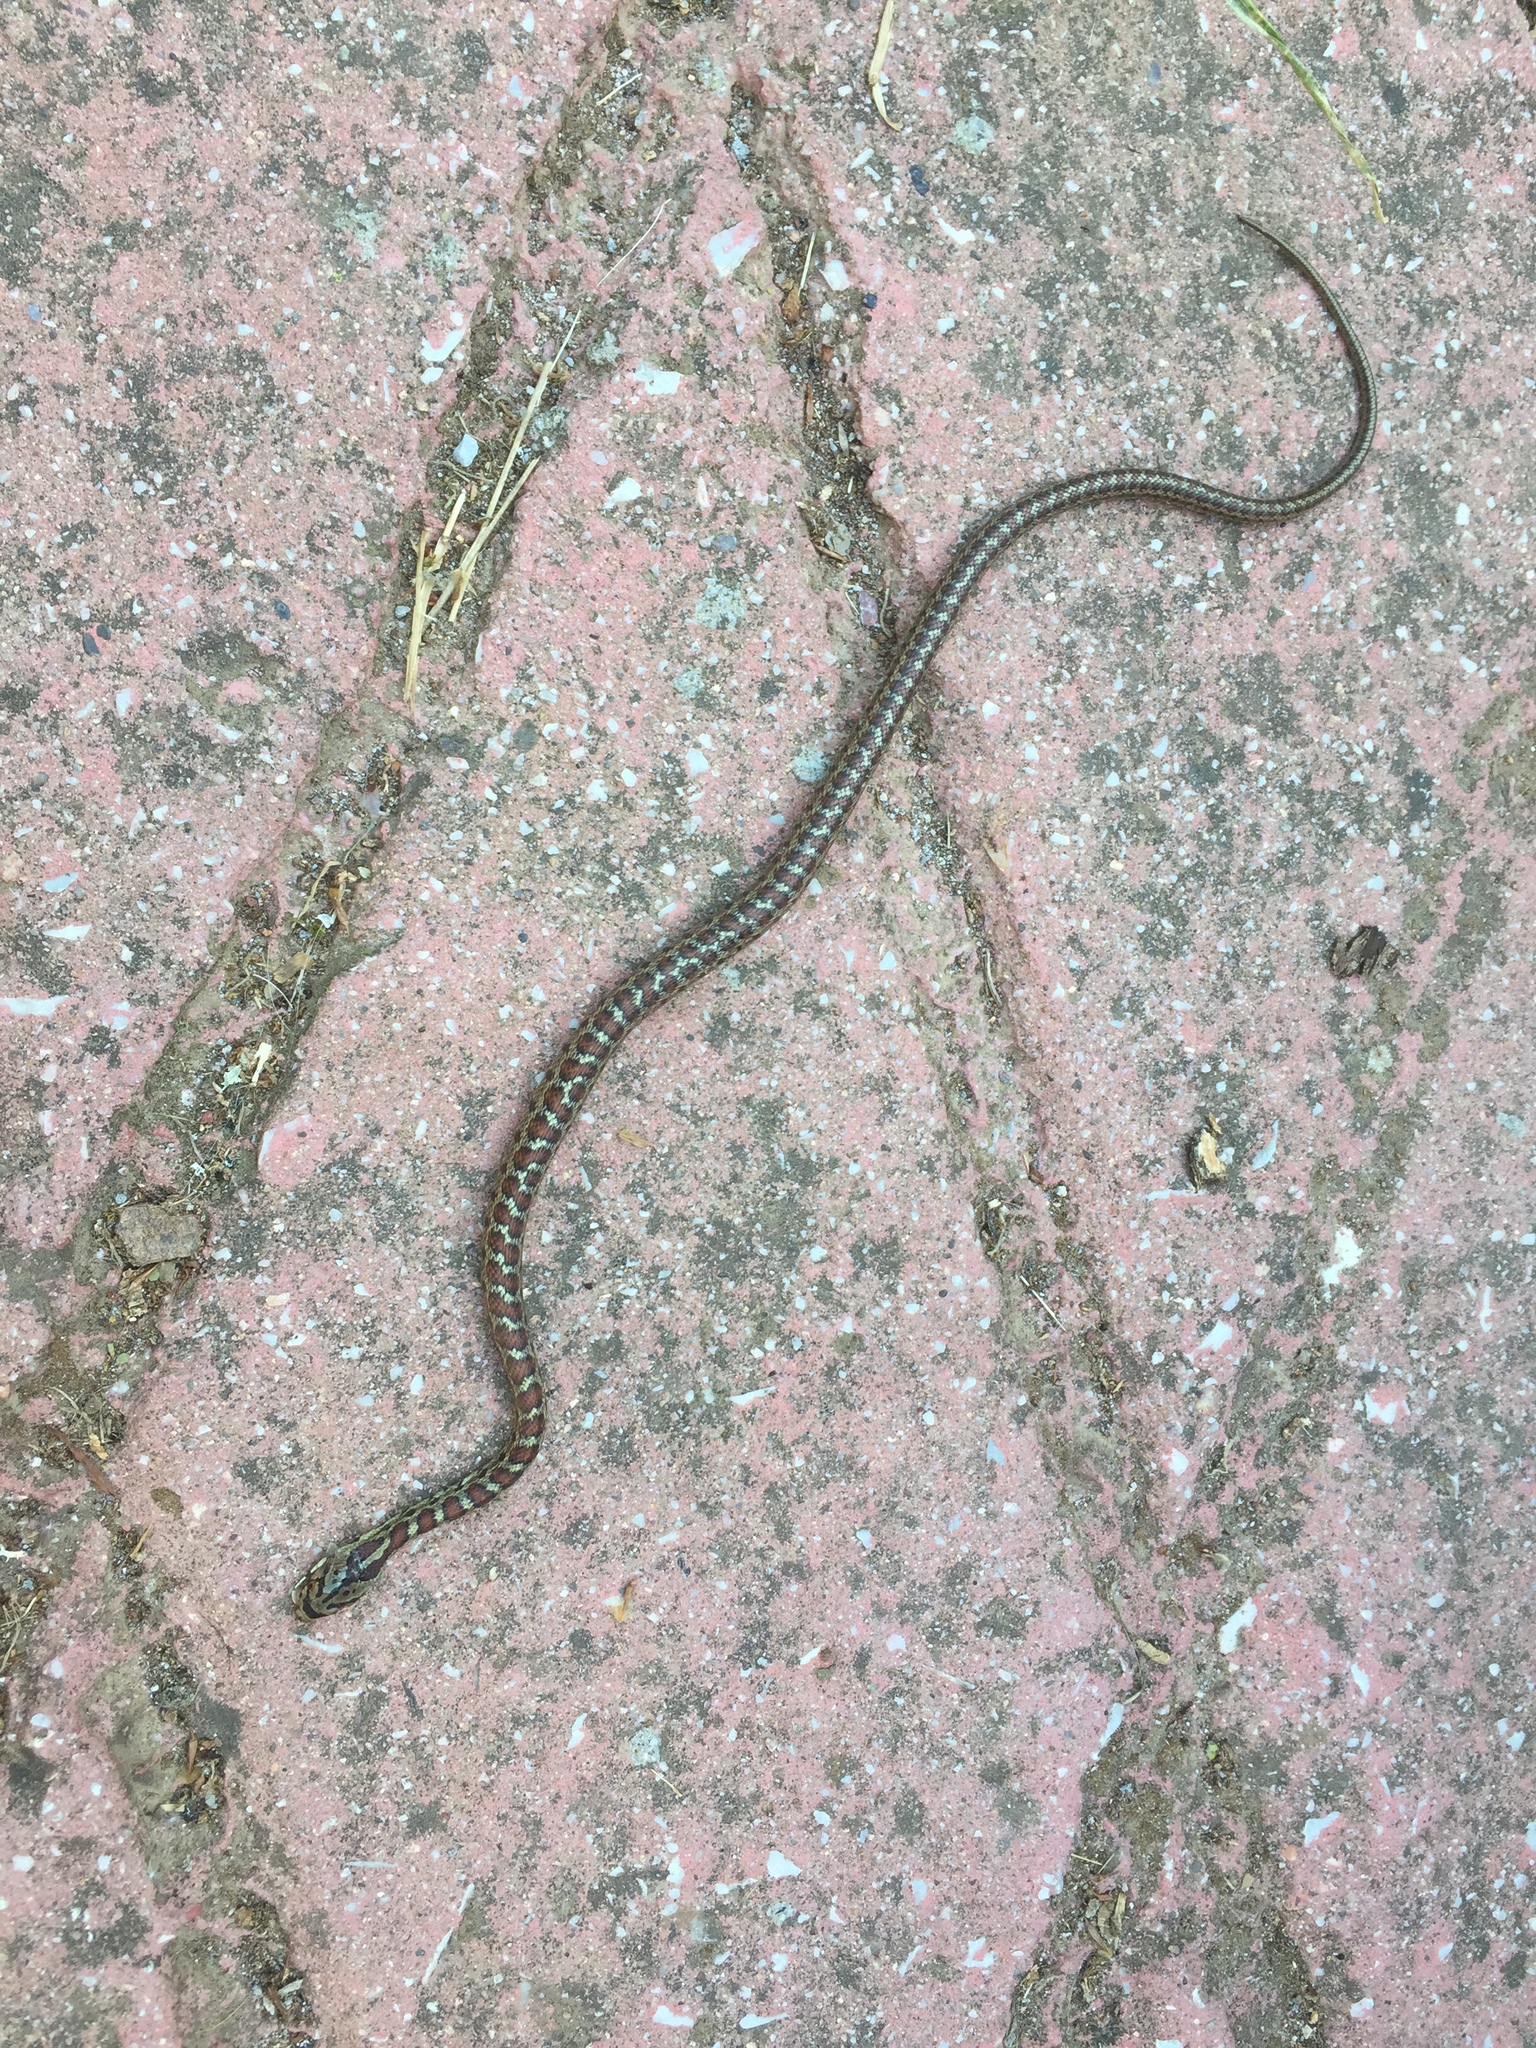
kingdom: Animalia
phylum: Chordata
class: Squamata
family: Colubridae
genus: Zamenis
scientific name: Zamenis situla
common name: European ratsnake
